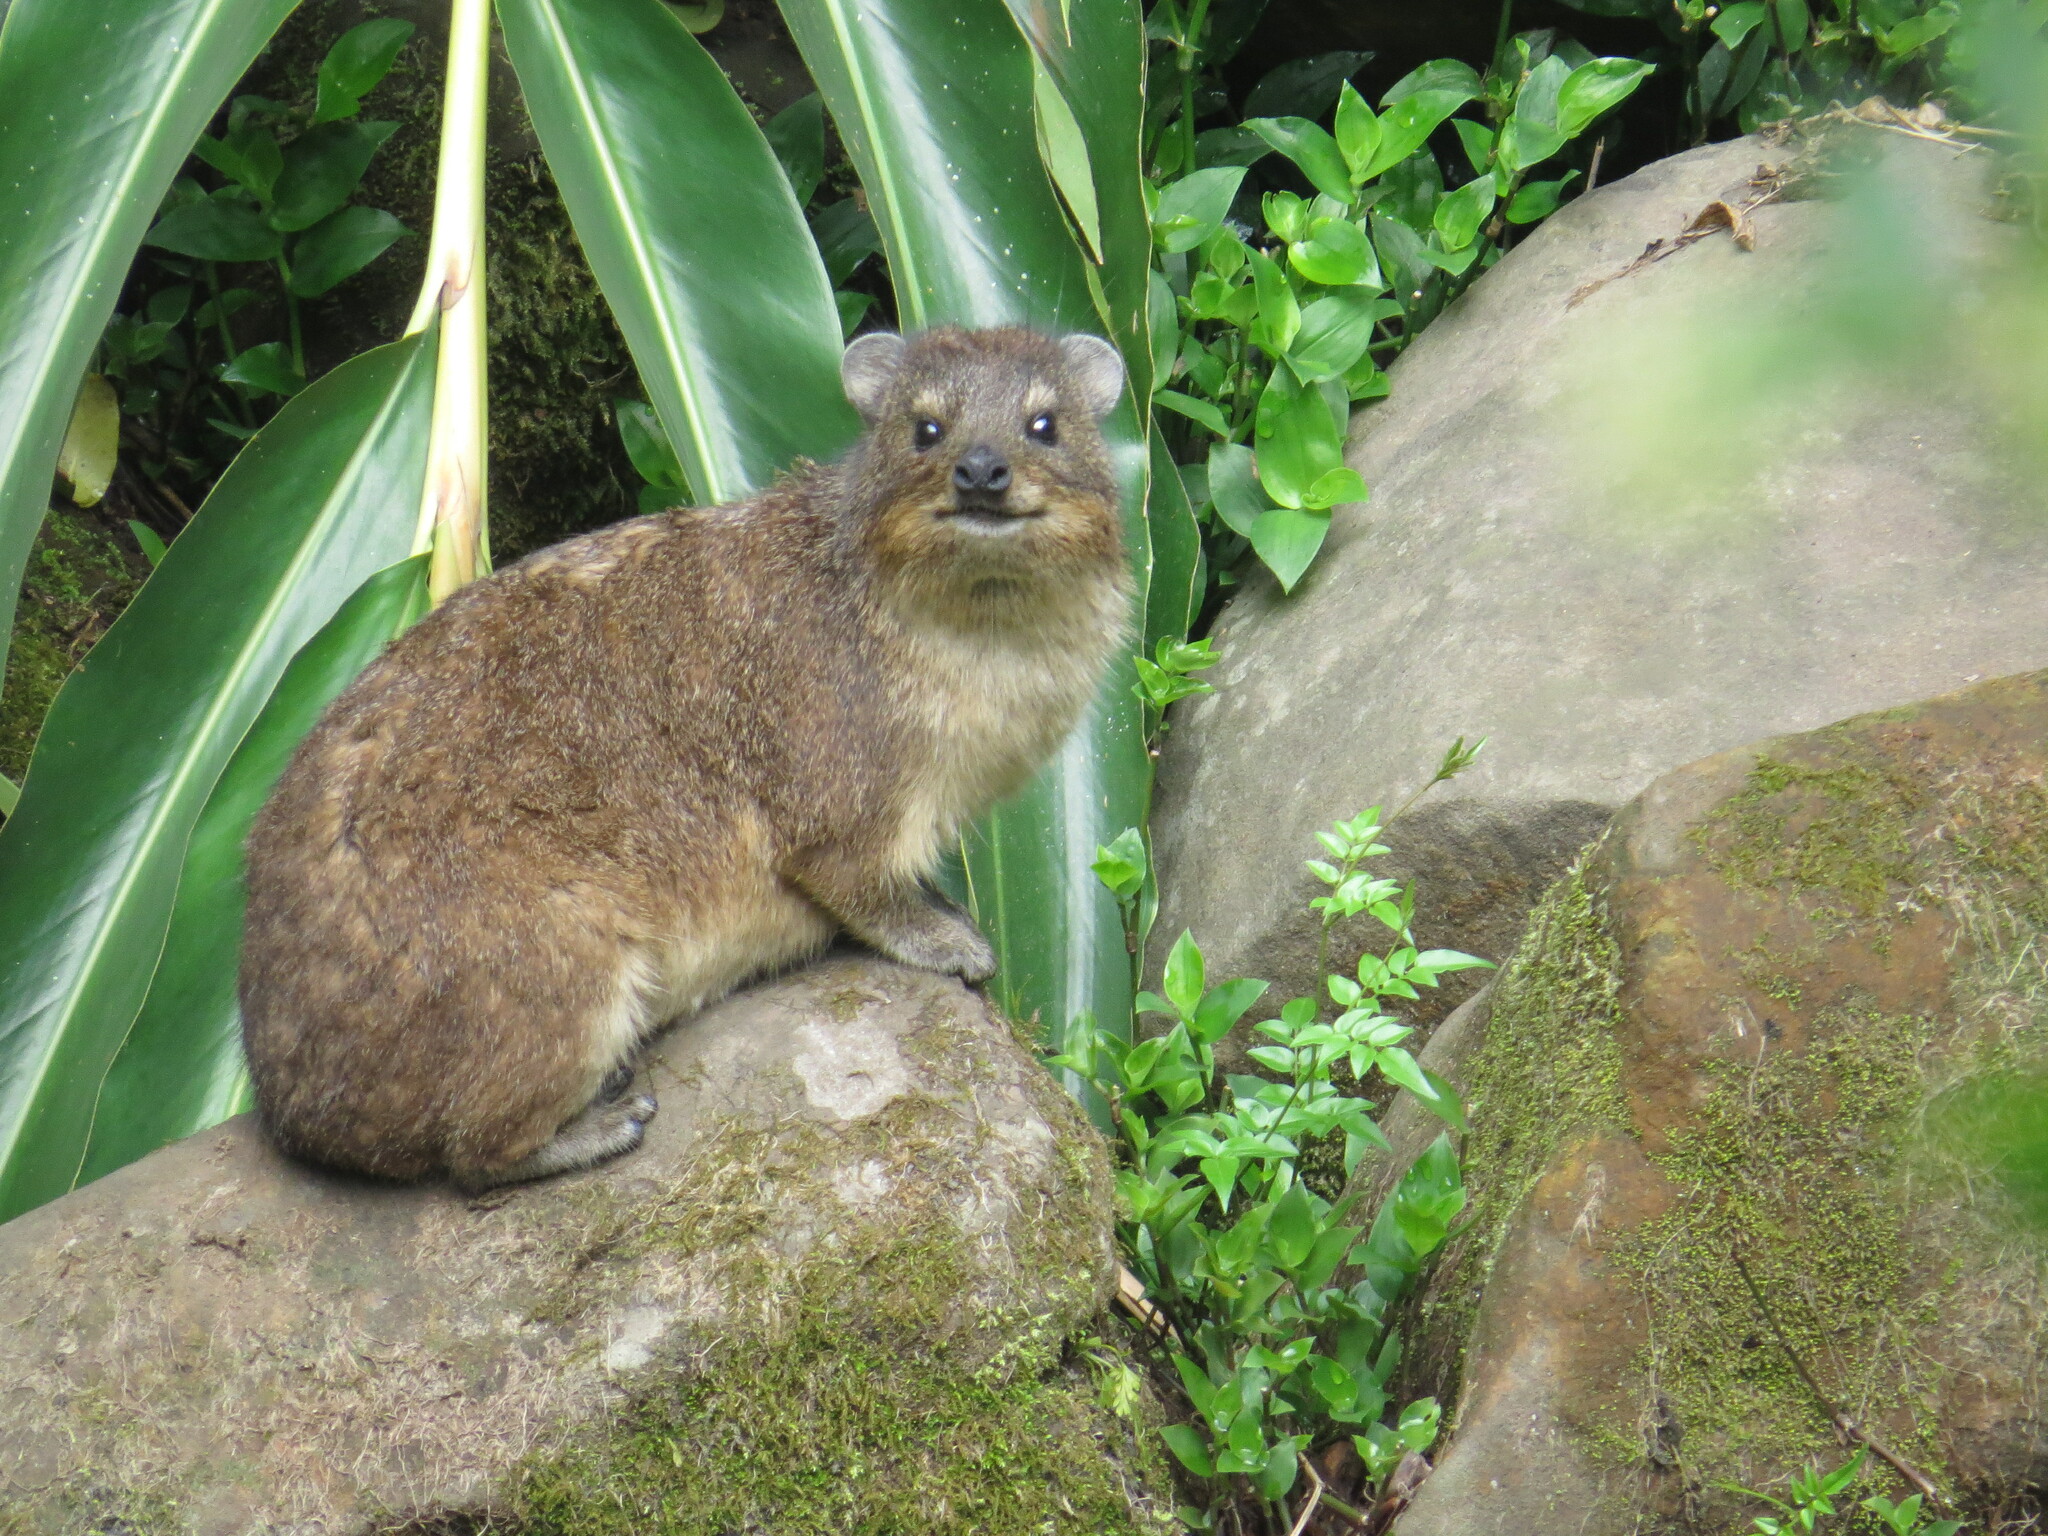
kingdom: Animalia
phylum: Chordata
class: Mammalia
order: Hyracoidea
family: Procaviidae
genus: Procavia
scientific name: Procavia capensis
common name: Rock hyrax
